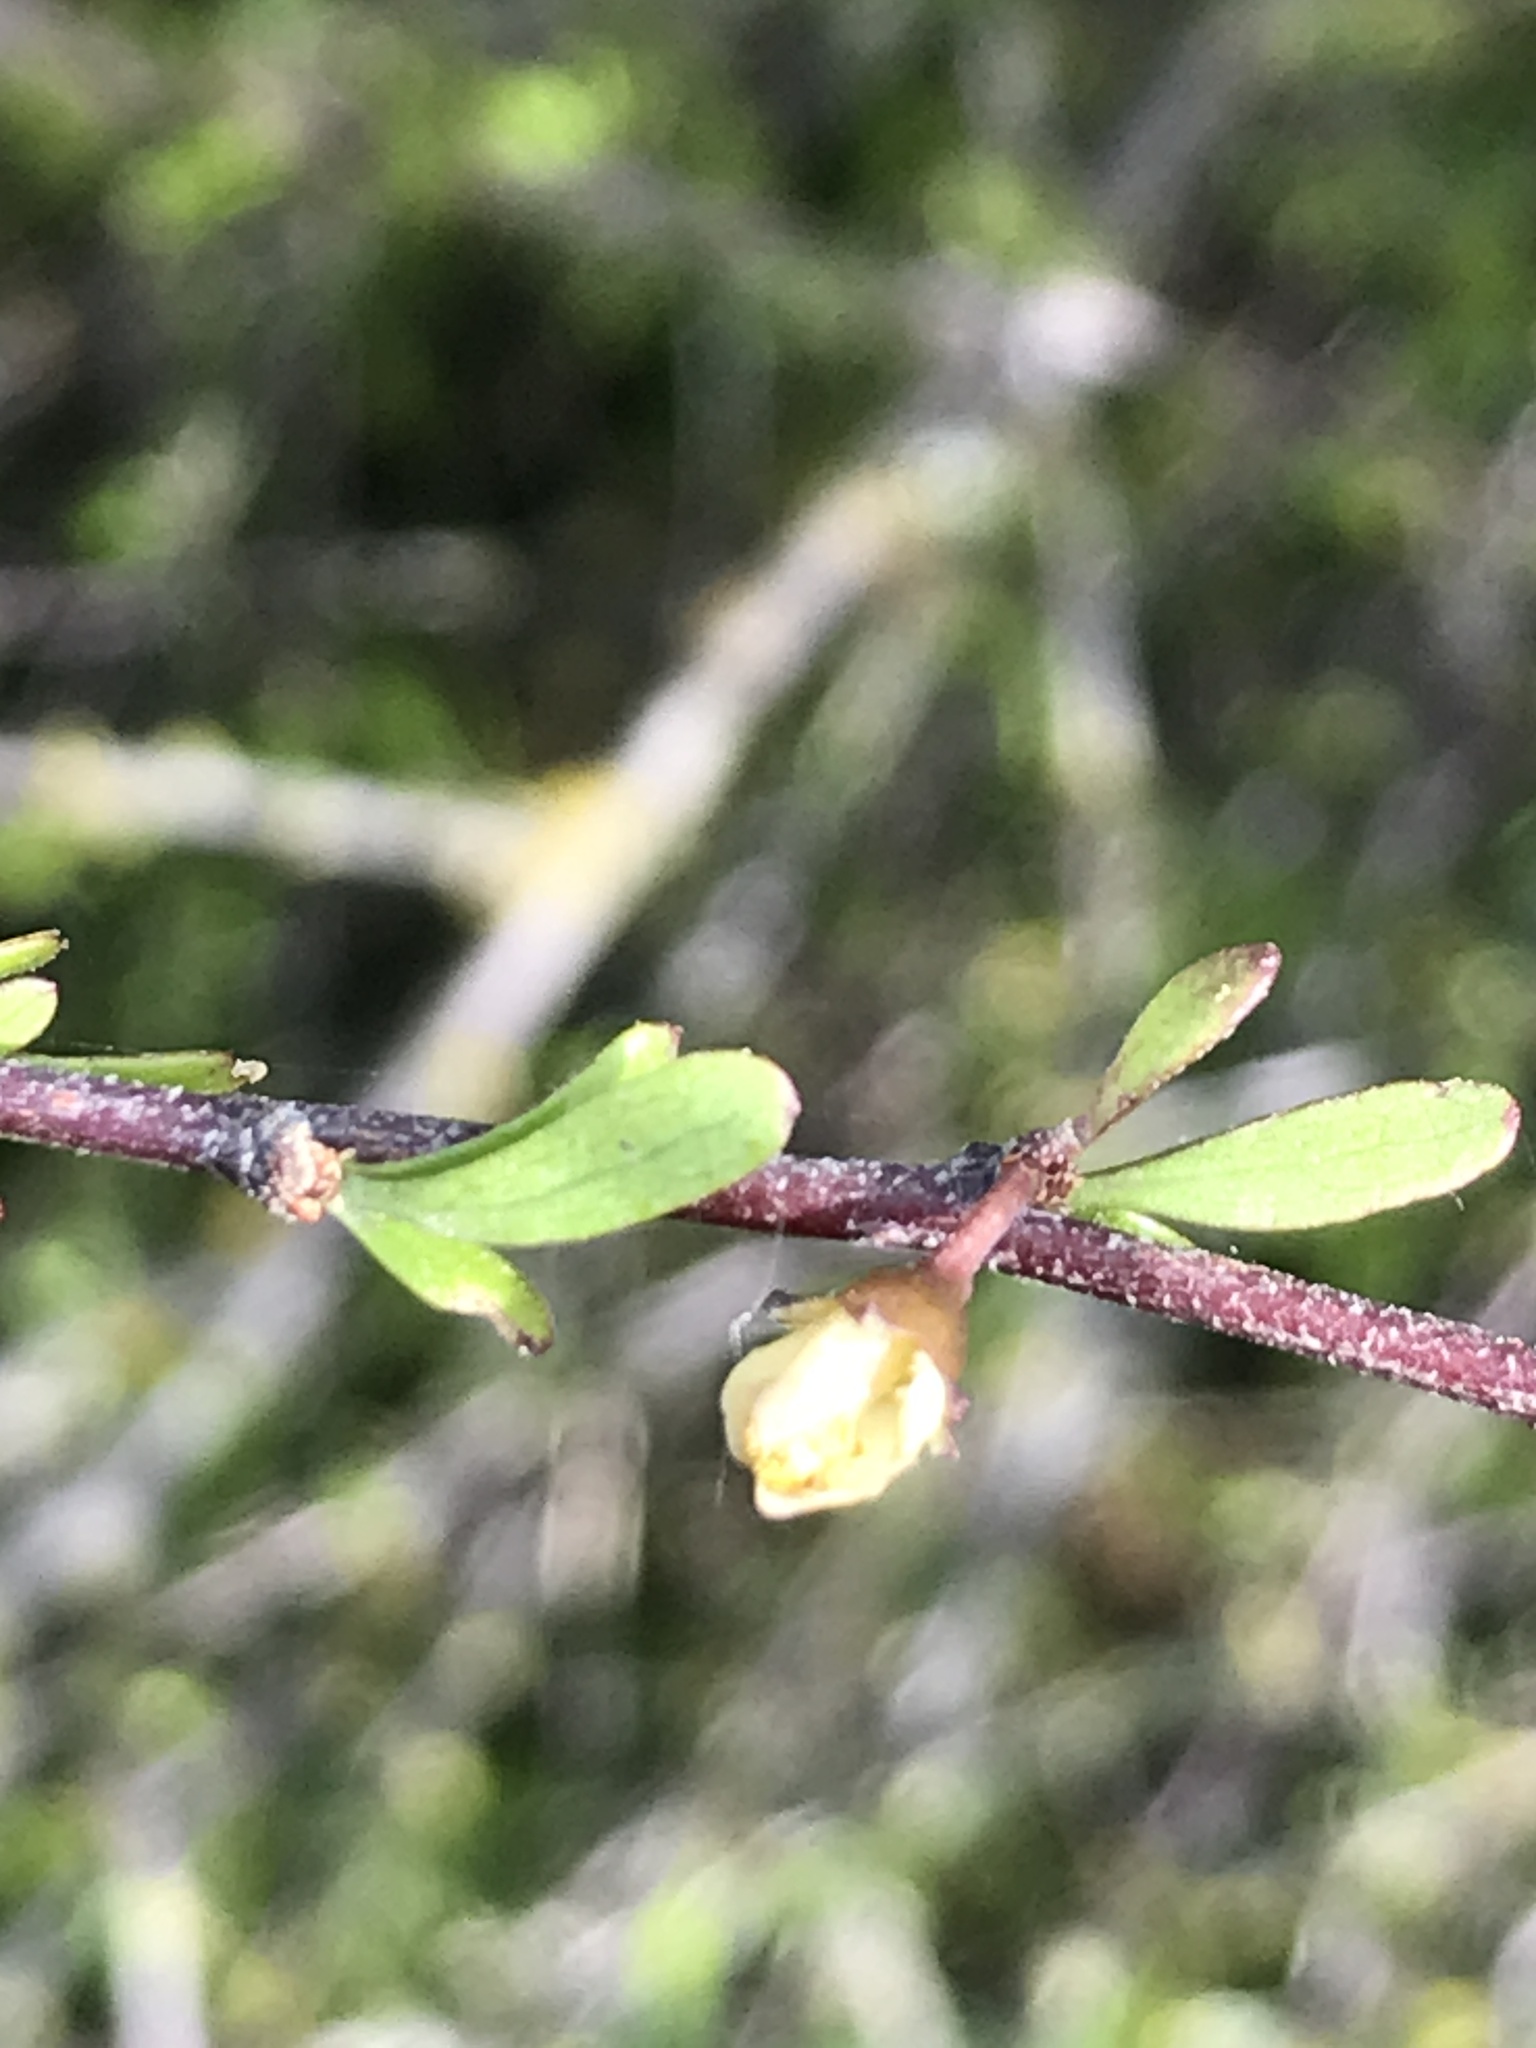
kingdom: Plantae
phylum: Tracheophyta
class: Magnoliopsida
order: Malvales
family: Malvaceae
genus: Plagianthus
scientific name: Plagianthus divaricatus
